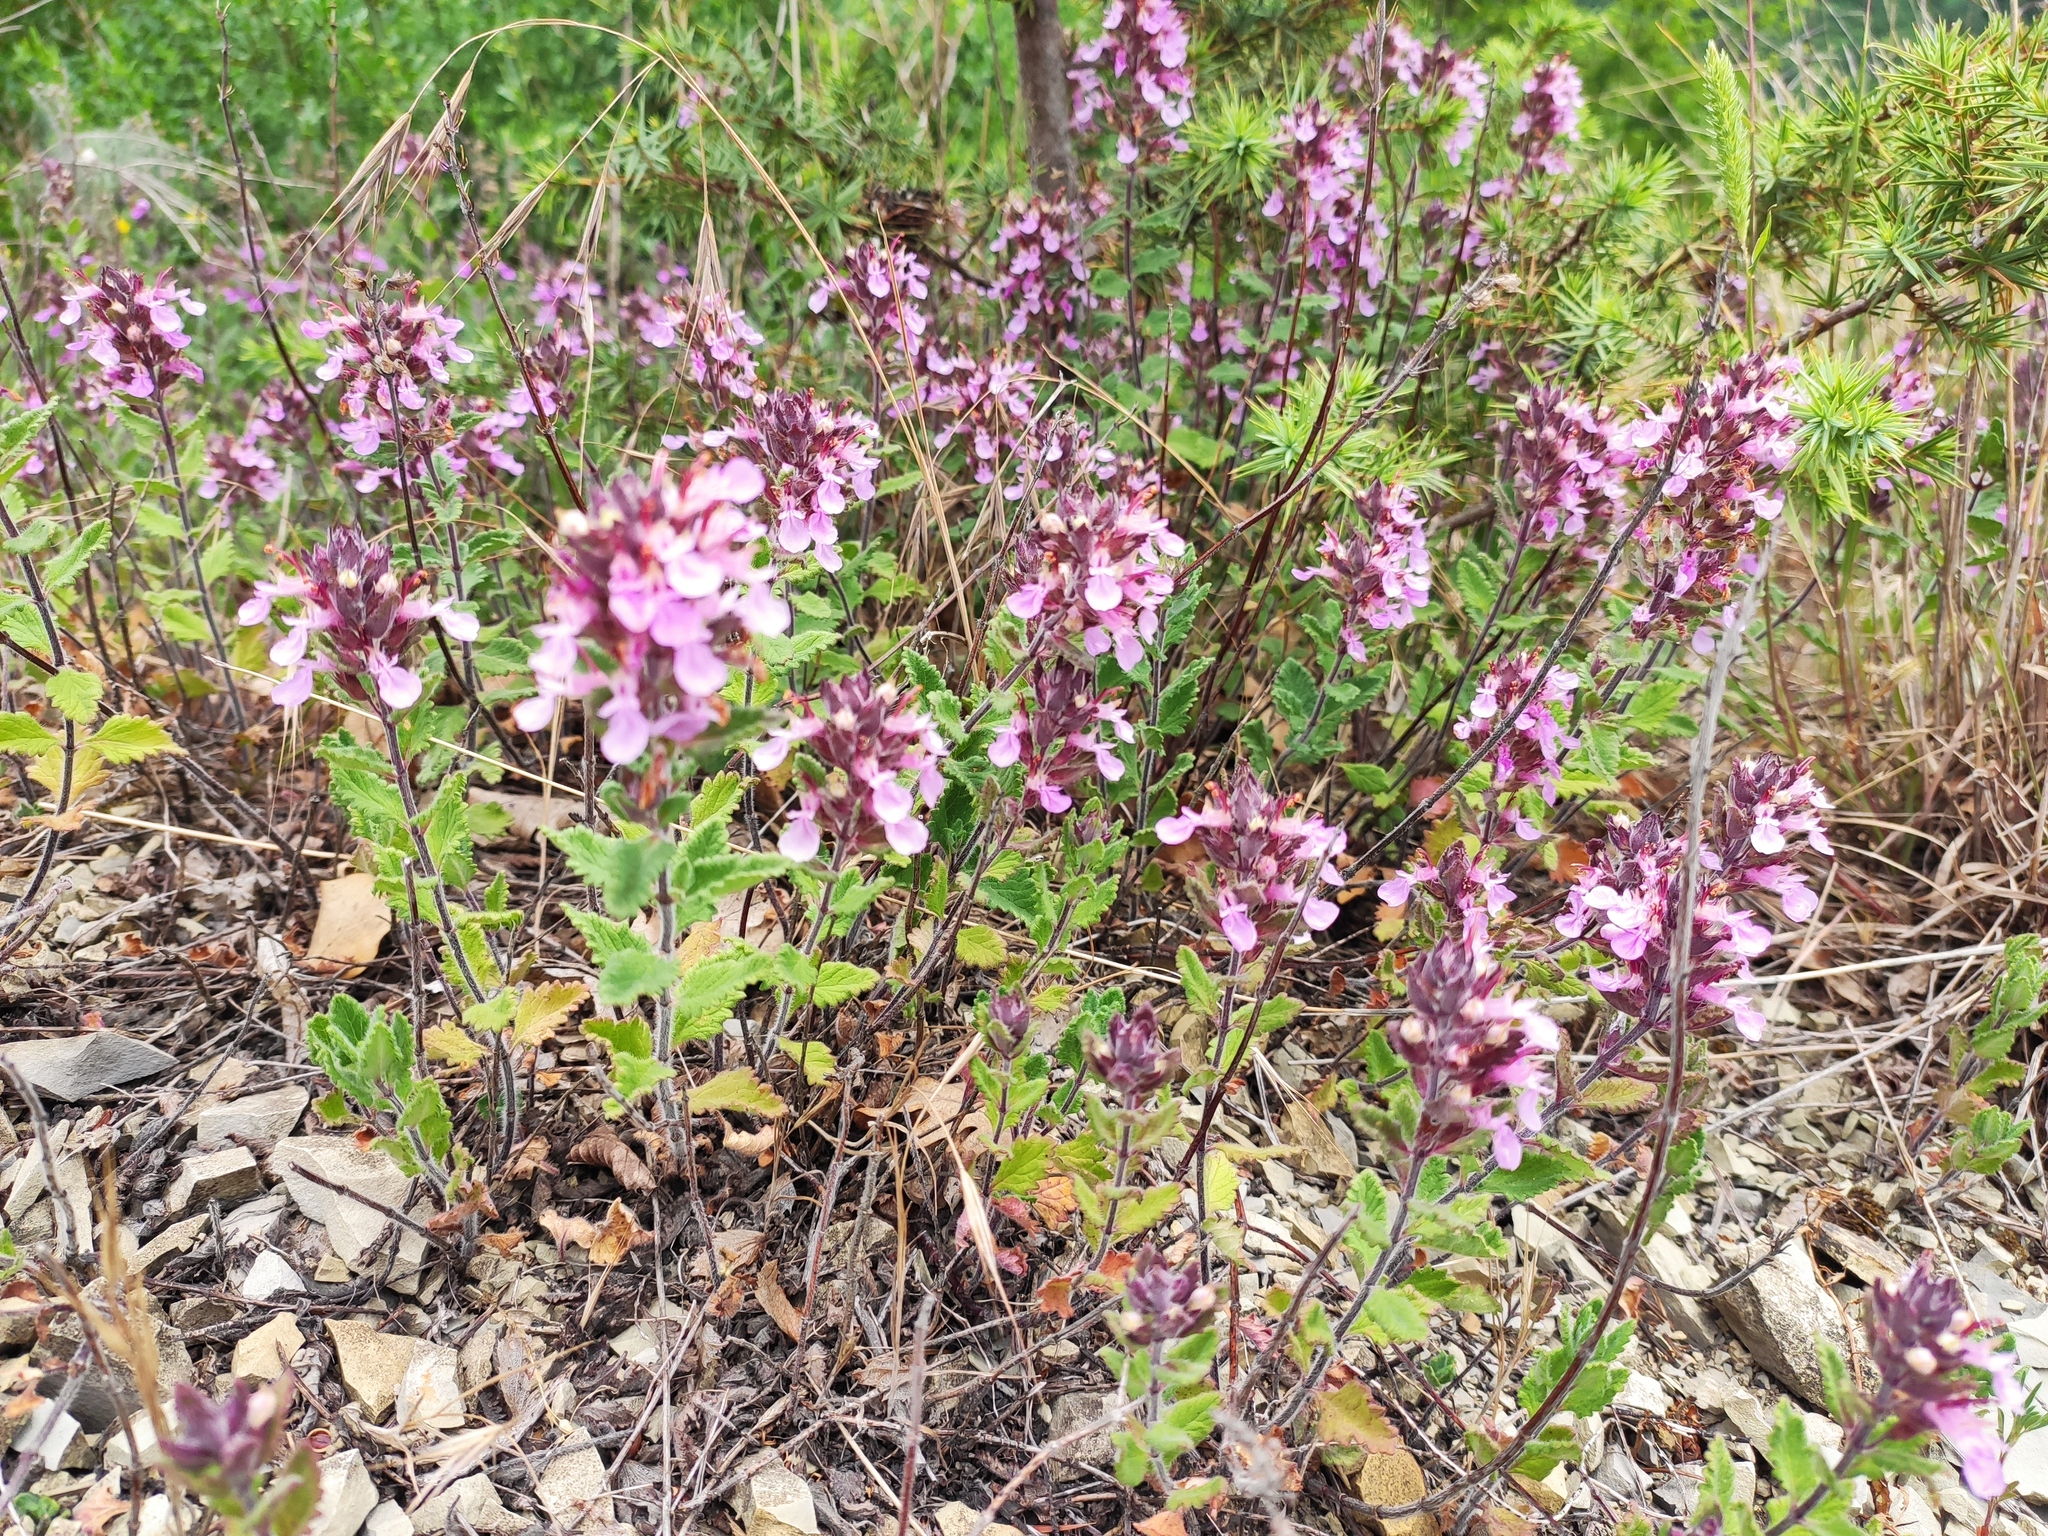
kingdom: Plantae
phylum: Tracheophyta
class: Magnoliopsida
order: Lamiales
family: Lamiaceae
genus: Teucrium
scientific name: Teucrium chamaedrys
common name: Wall germander
